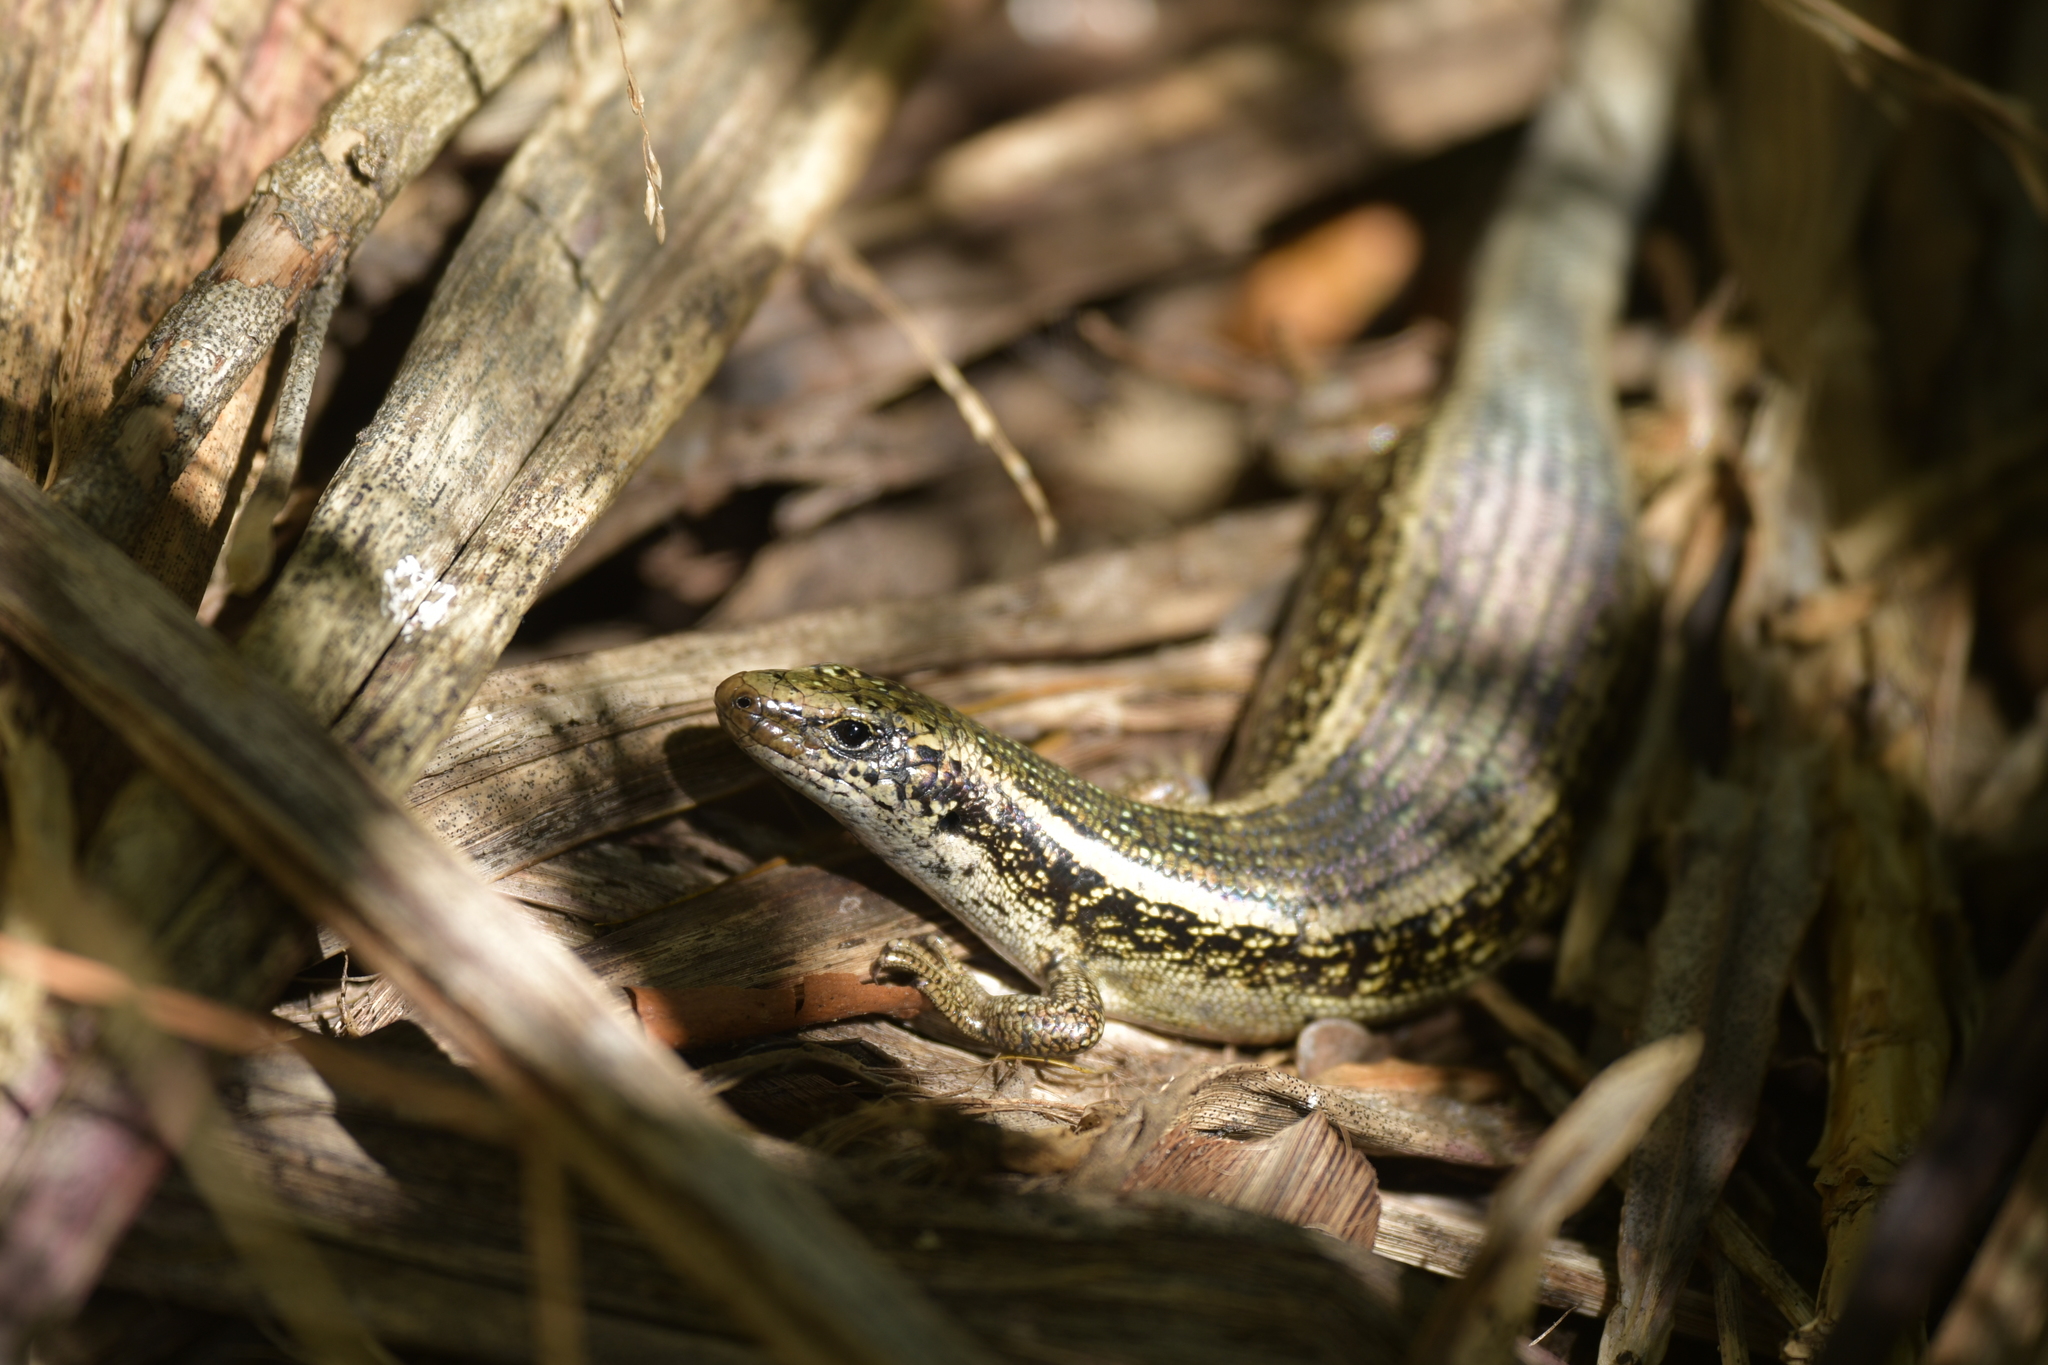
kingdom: Animalia
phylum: Chordata
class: Squamata
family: Scincidae
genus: Oligosoma
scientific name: Oligosoma kokowai
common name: Northern spotted skink
